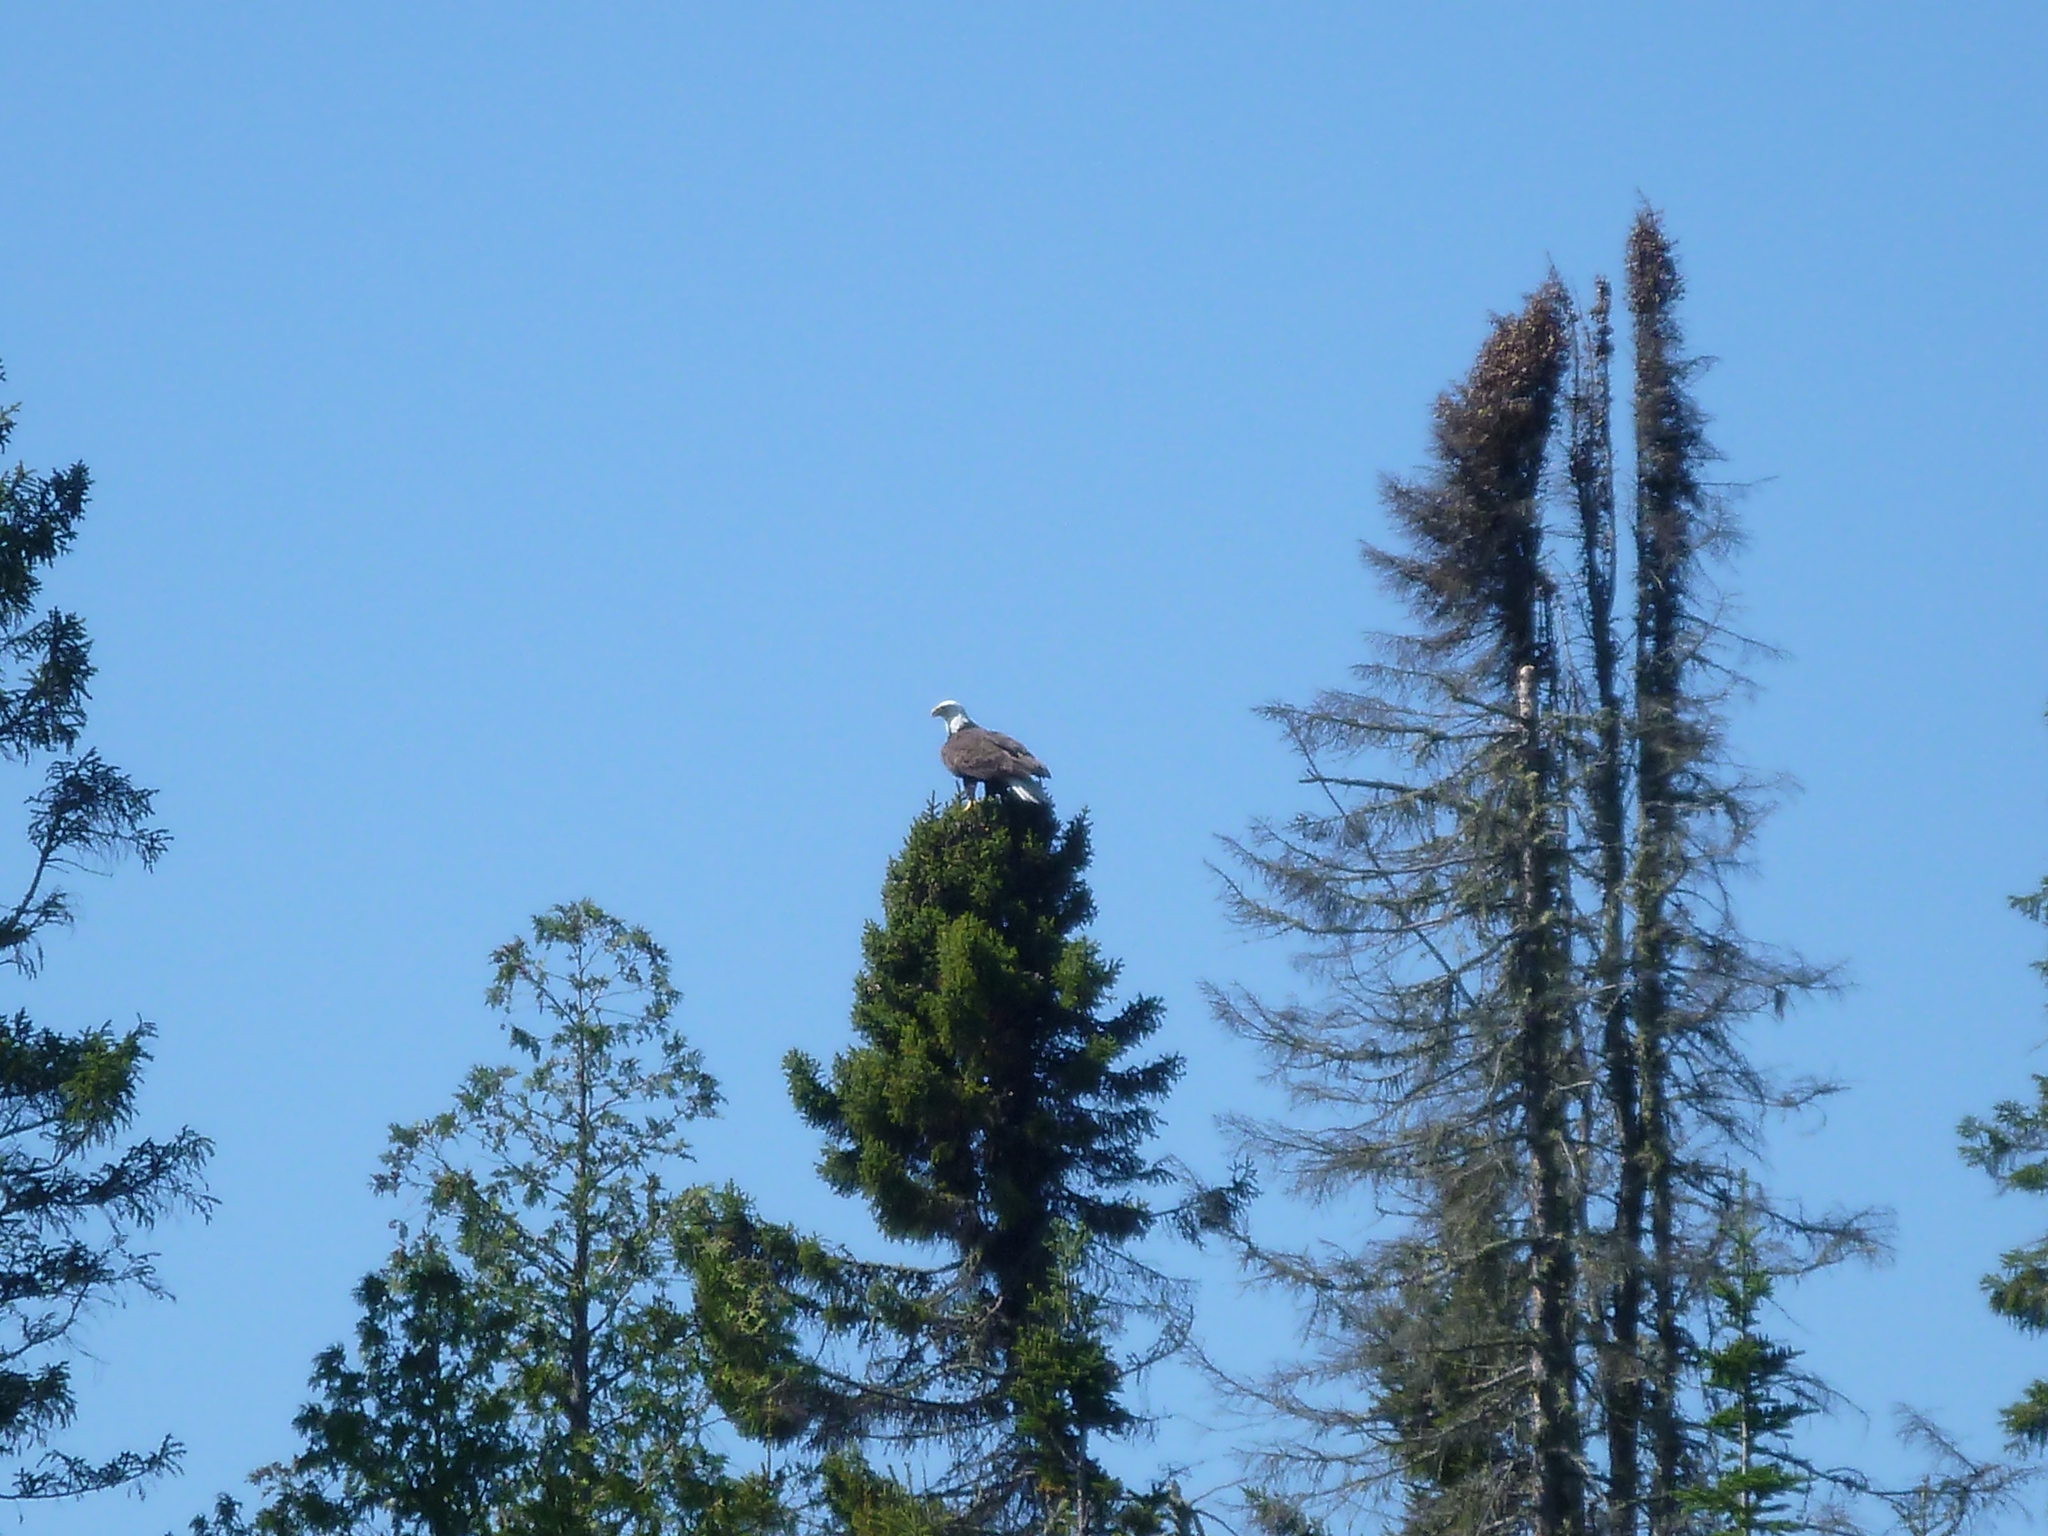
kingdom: Animalia
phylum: Chordata
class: Aves
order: Accipitriformes
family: Accipitridae
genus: Haliaeetus
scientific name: Haliaeetus leucocephalus
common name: Bald eagle
